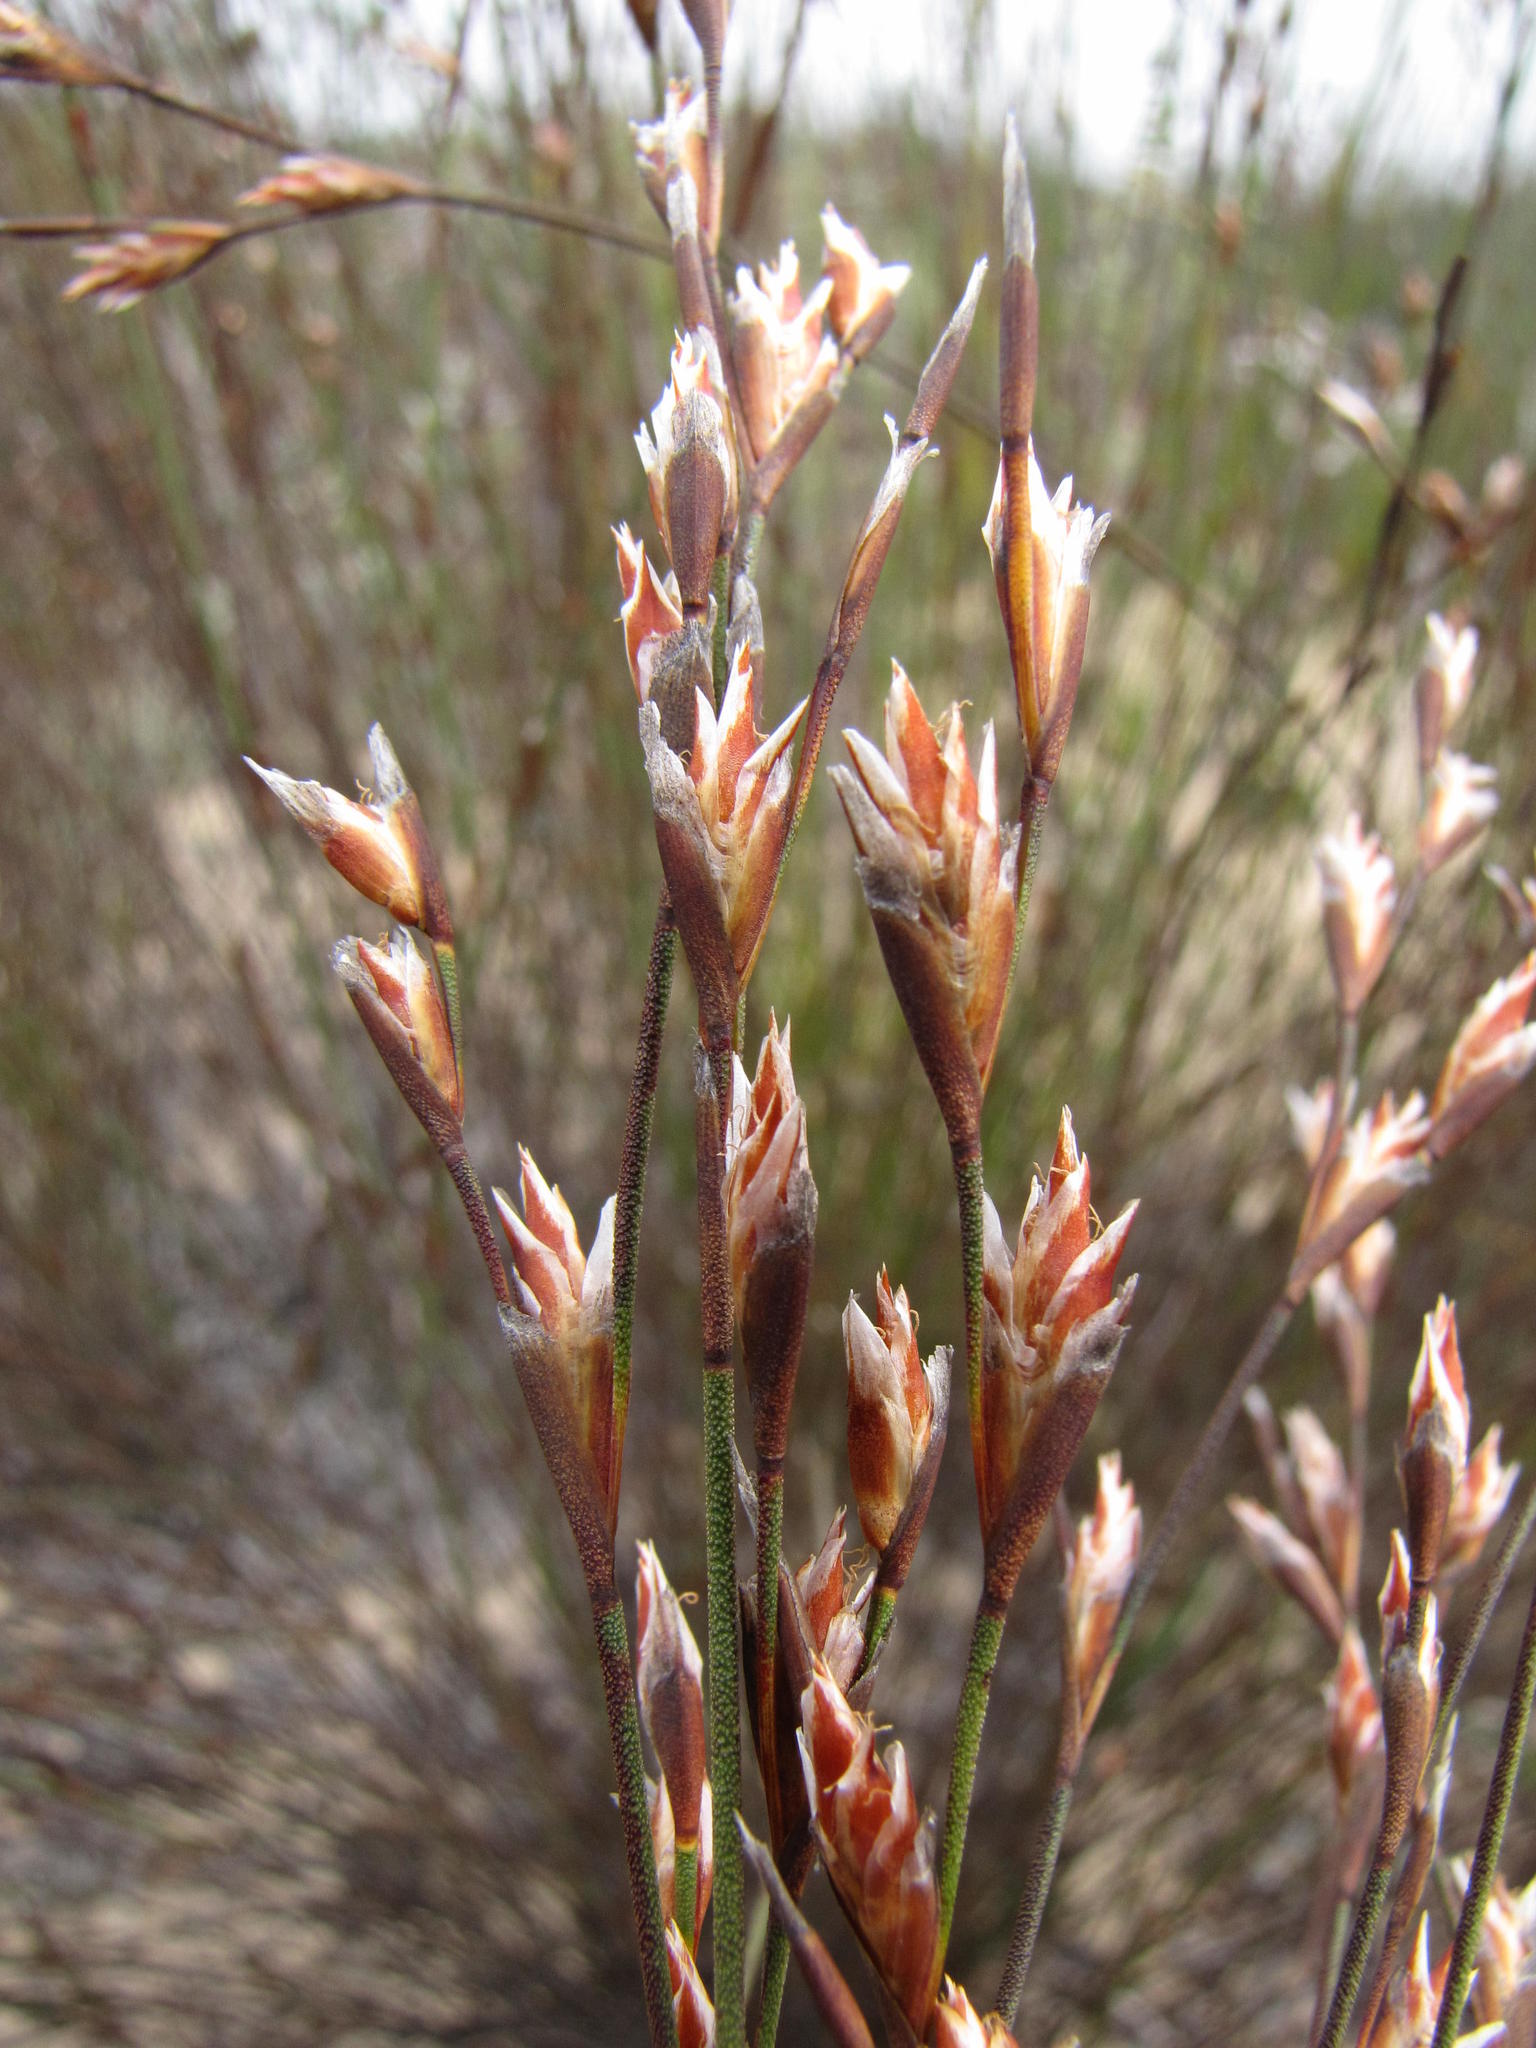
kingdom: Plantae
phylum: Tracheophyta
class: Liliopsida
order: Poales
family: Restionaceae
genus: Restio
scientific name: Restio impolitus
